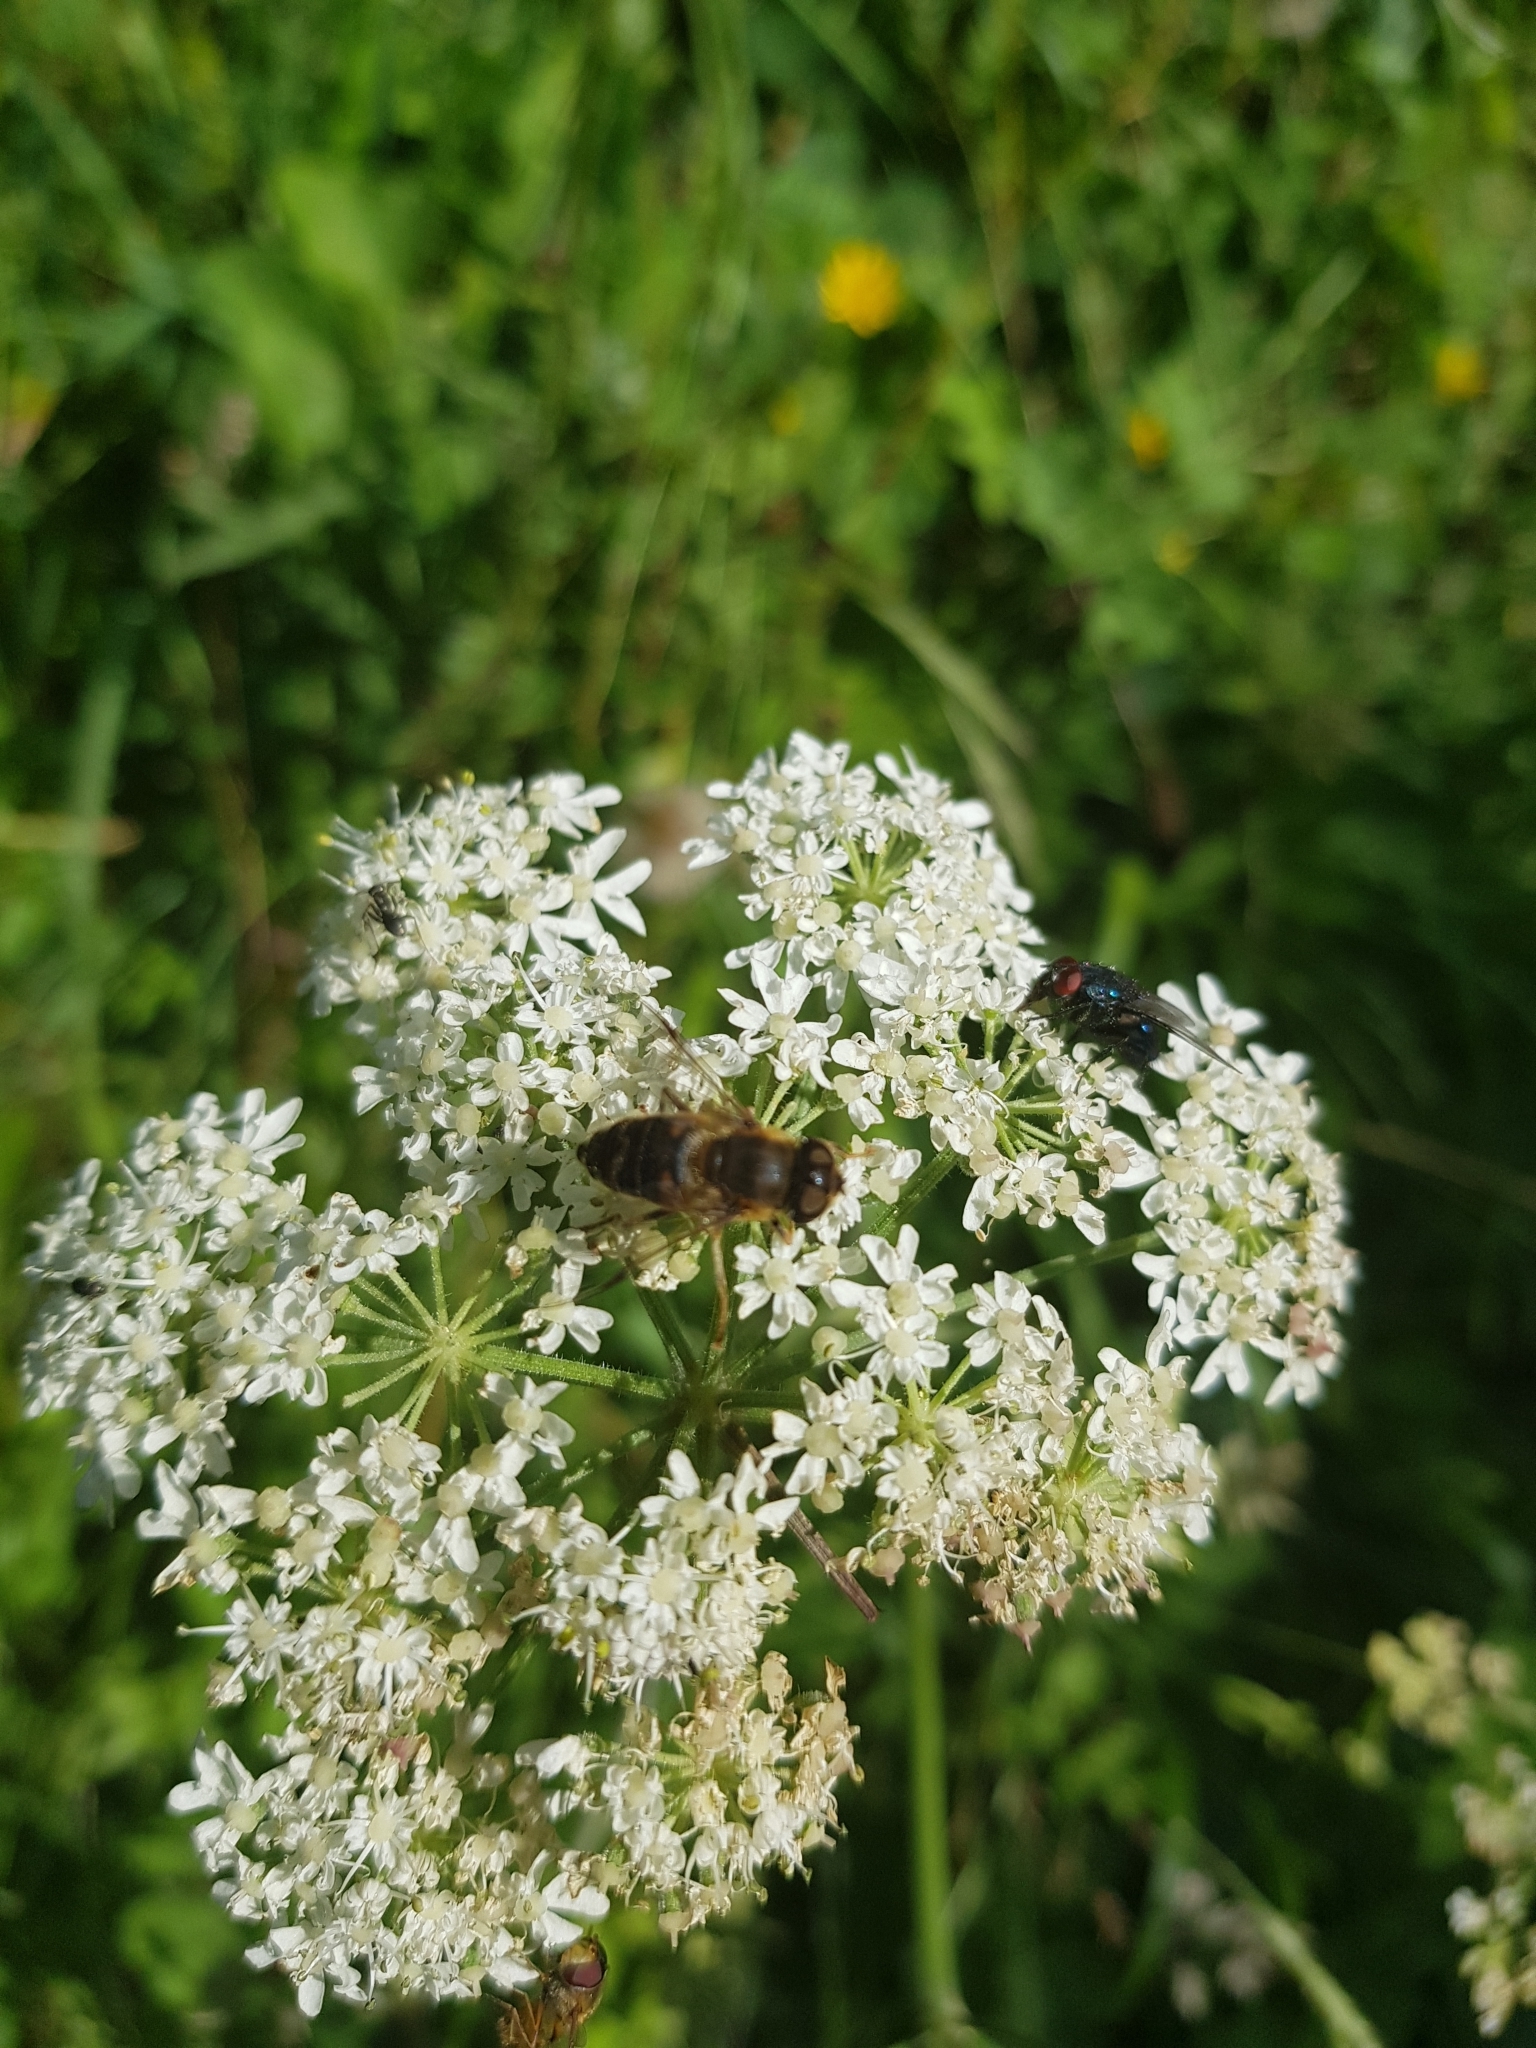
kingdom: Animalia
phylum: Arthropoda
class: Insecta
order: Diptera
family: Syrphidae
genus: Eristalis
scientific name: Eristalis pertinax
